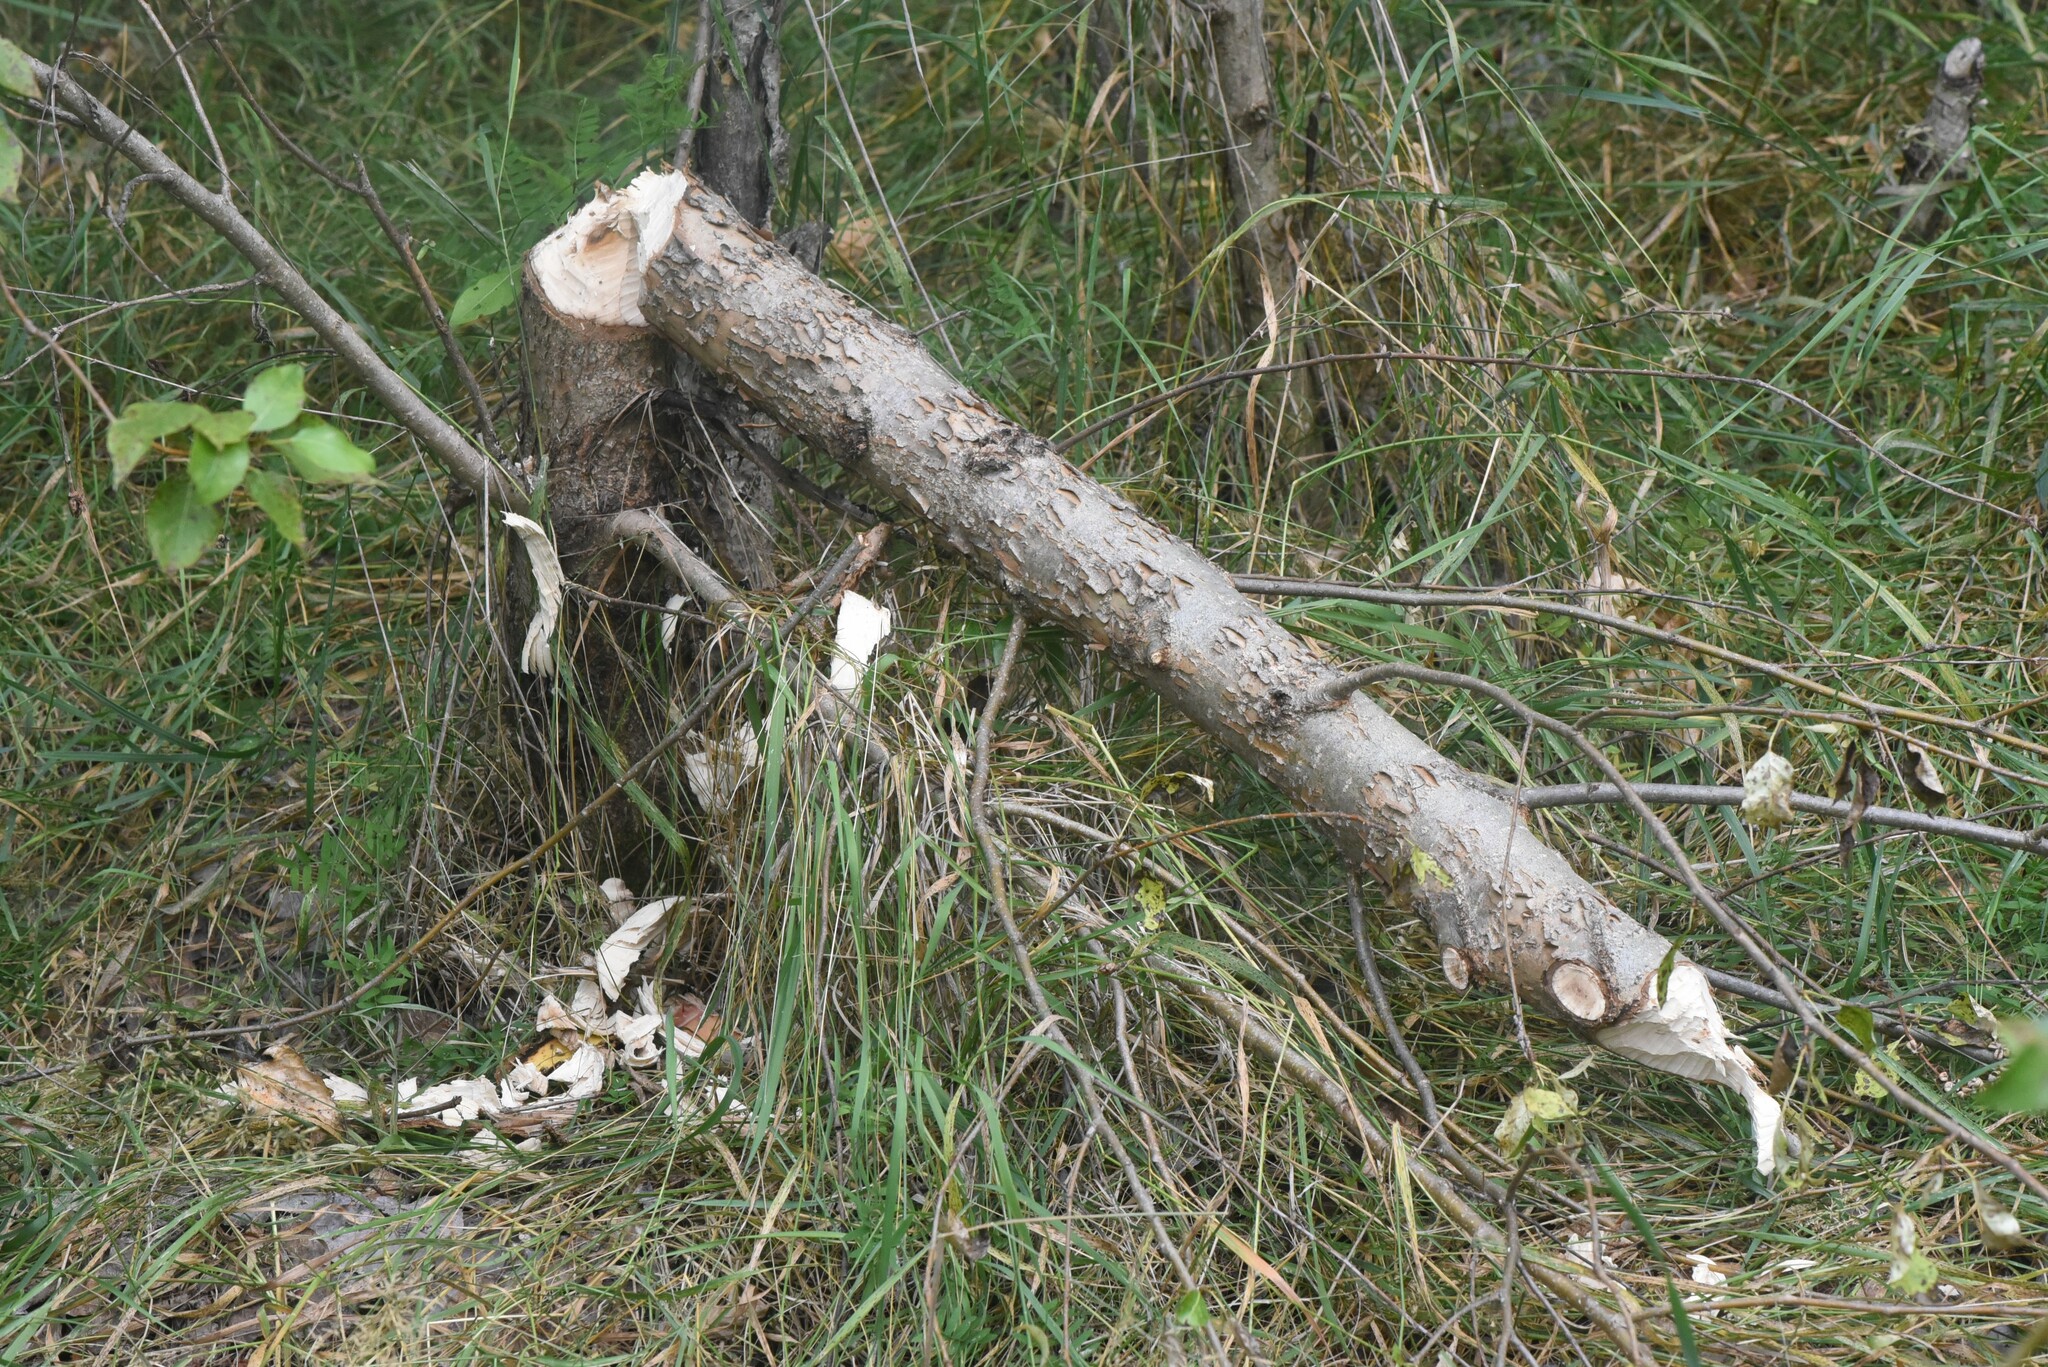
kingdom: Animalia
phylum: Chordata
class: Mammalia
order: Rodentia
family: Castoridae
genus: Castor
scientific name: Castor canadensis
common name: American beaver
